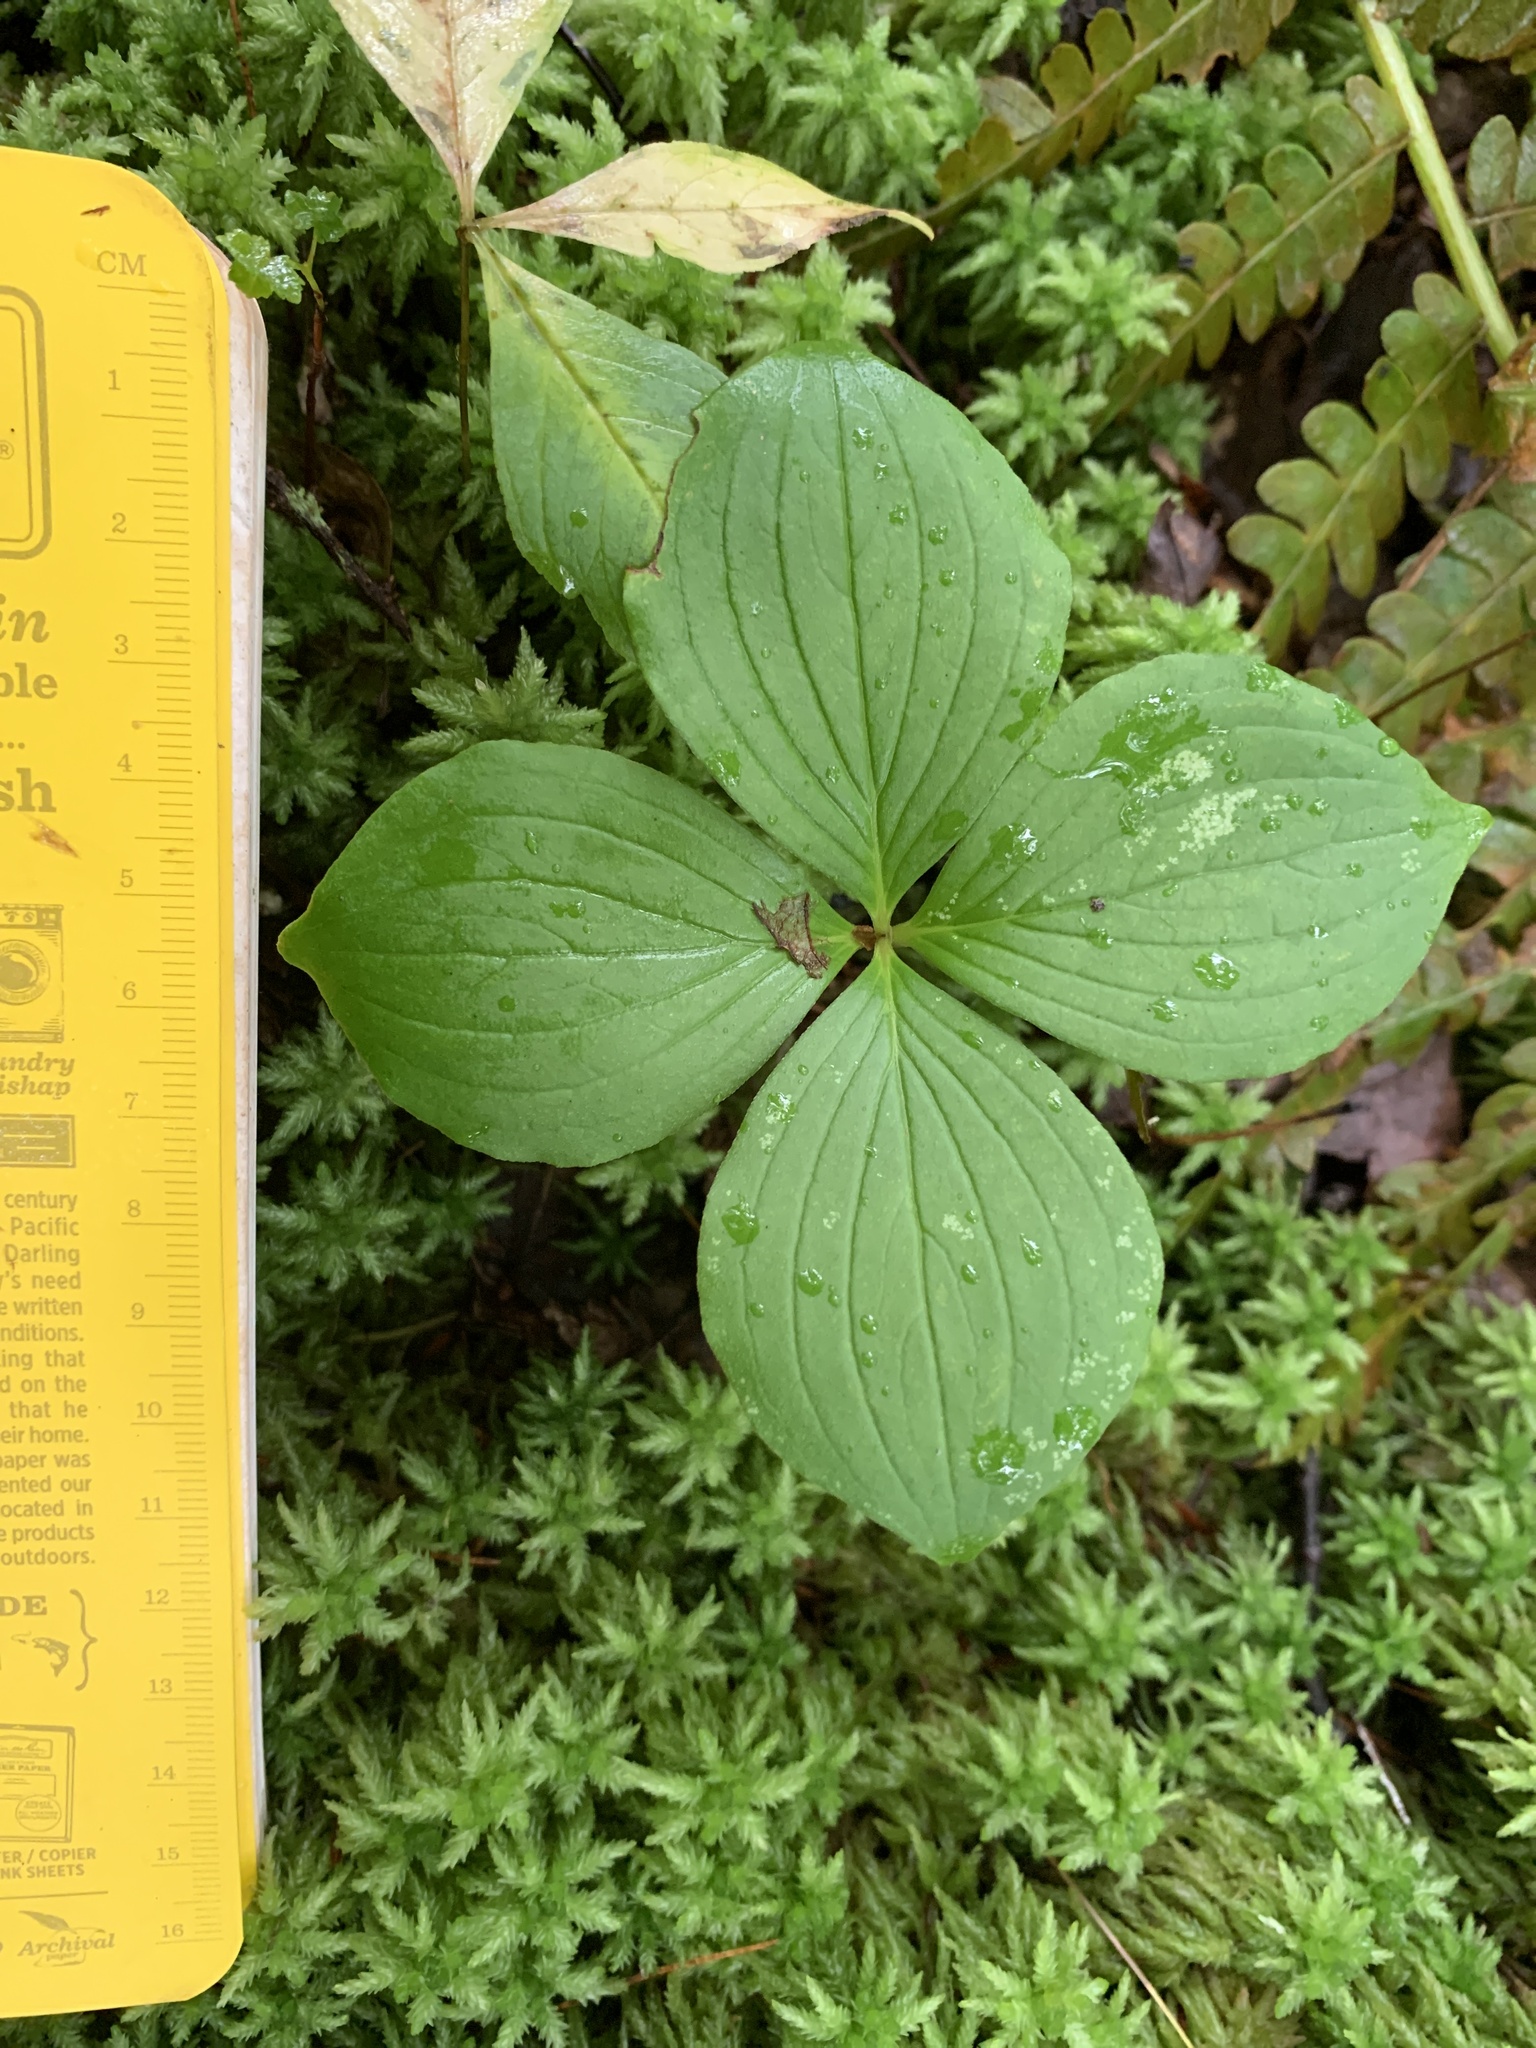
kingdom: Plantae
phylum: Tracheophyta
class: Magnoliopsida
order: Cornales
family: Cornaceae
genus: Cornus
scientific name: Cornus canadensis
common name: Creeping dogwood
